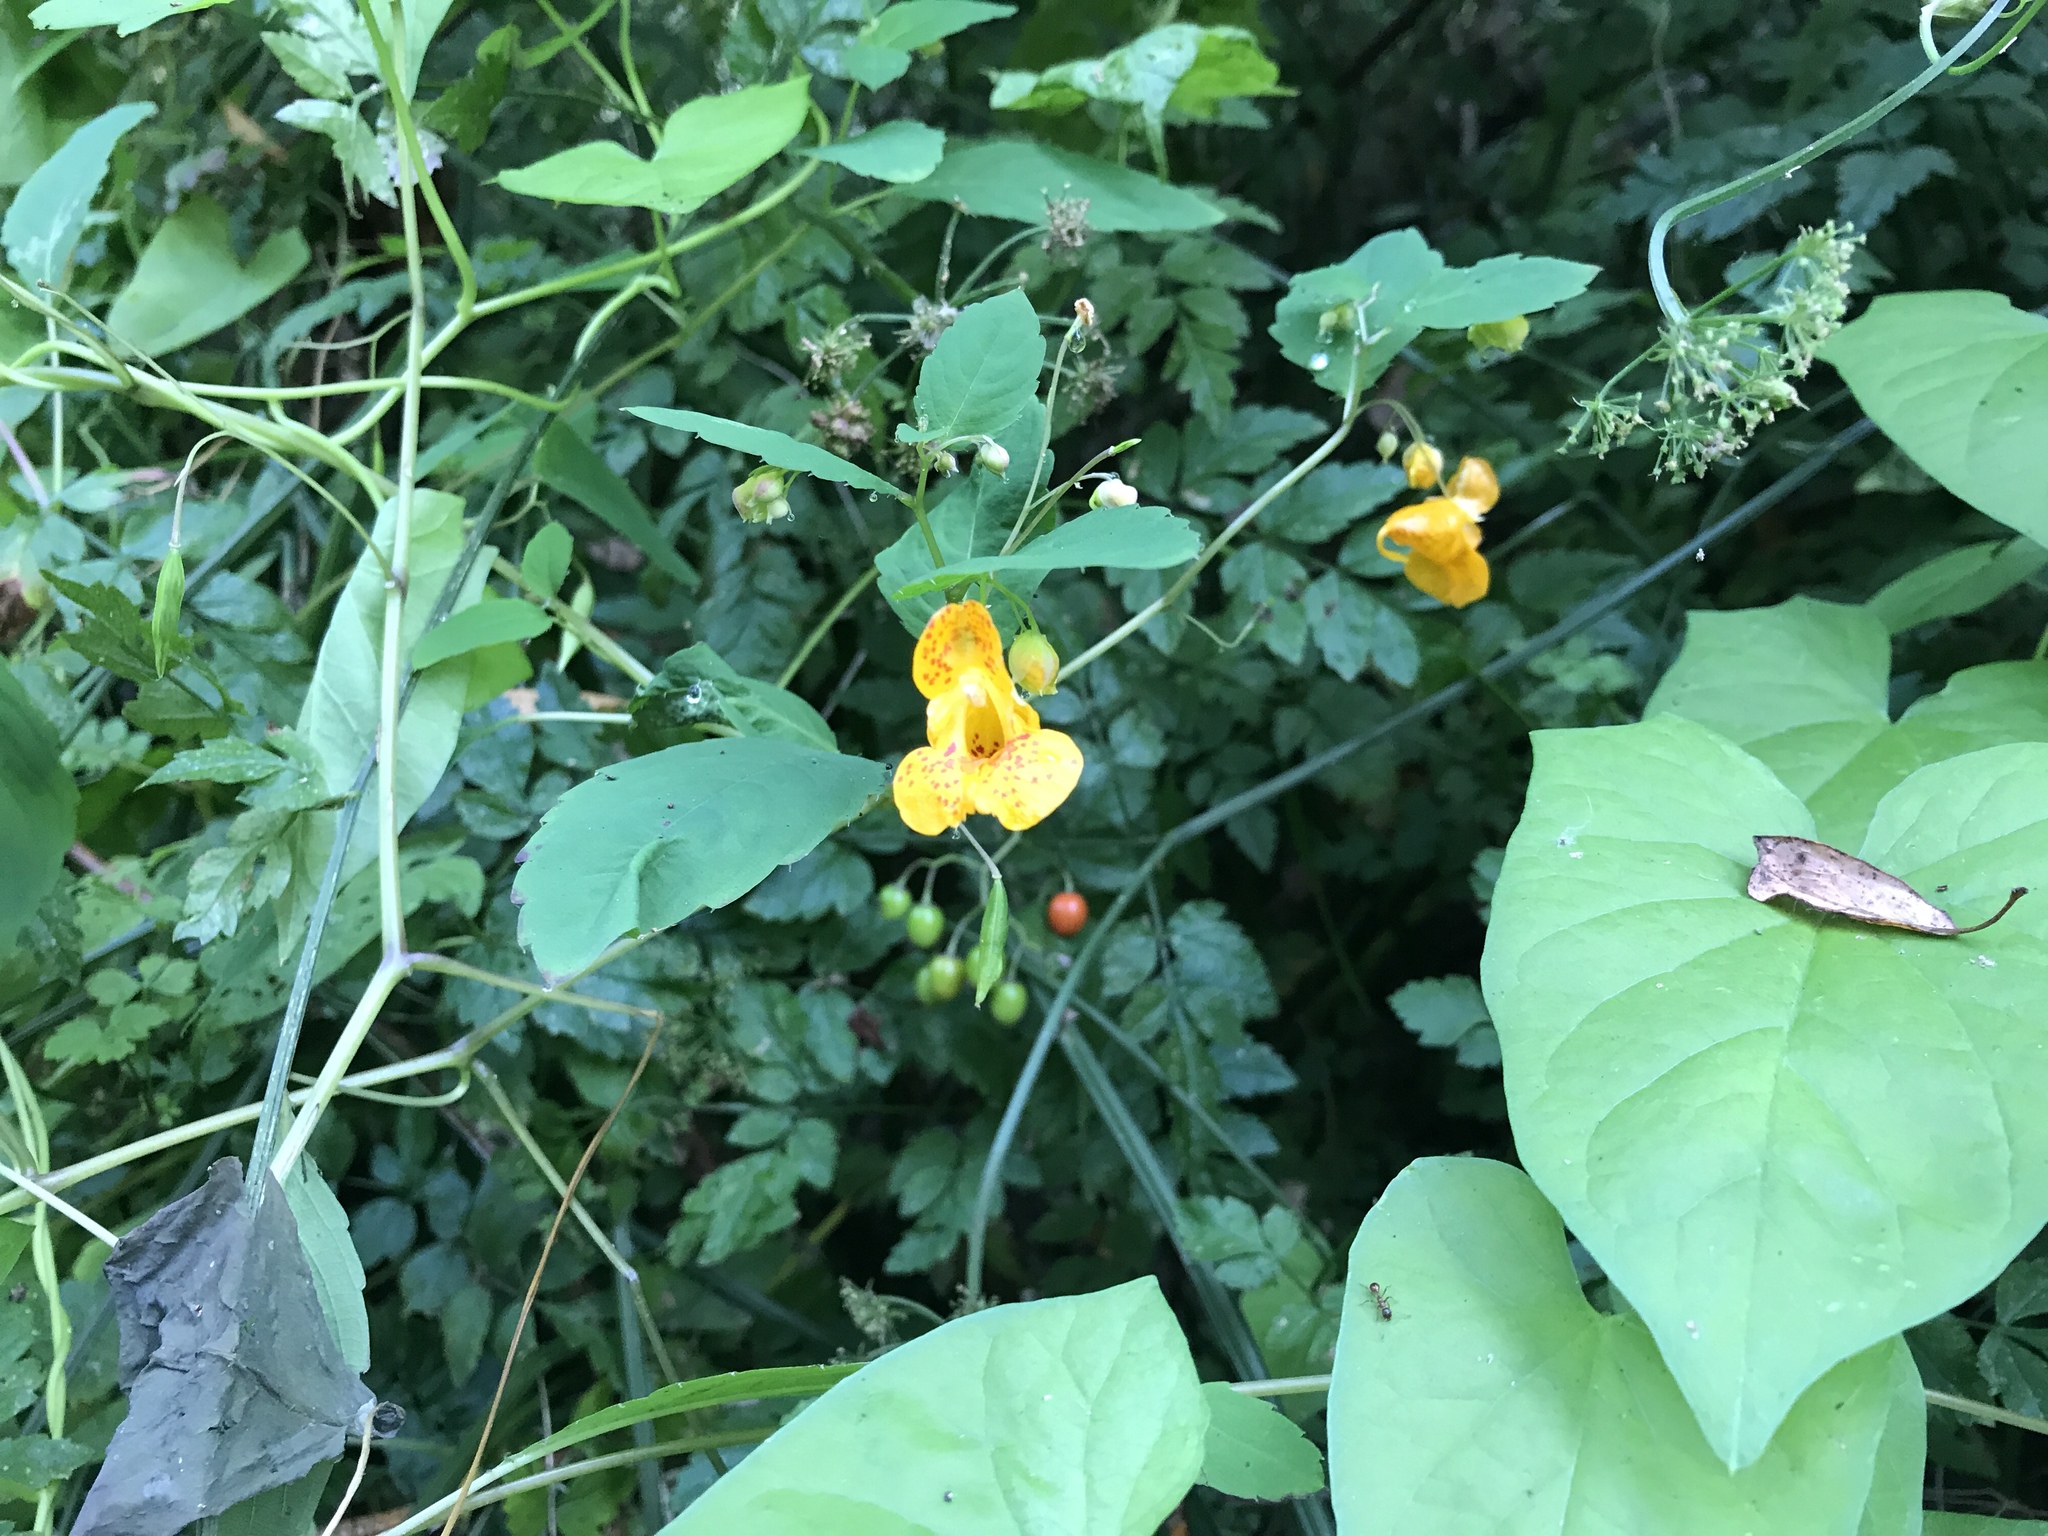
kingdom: Plantae
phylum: Tracheophyta
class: Magnoliopsida
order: Ericales
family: Balsaminaceae
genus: Impatiens
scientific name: Impatiens capensis
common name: Orange balsam
